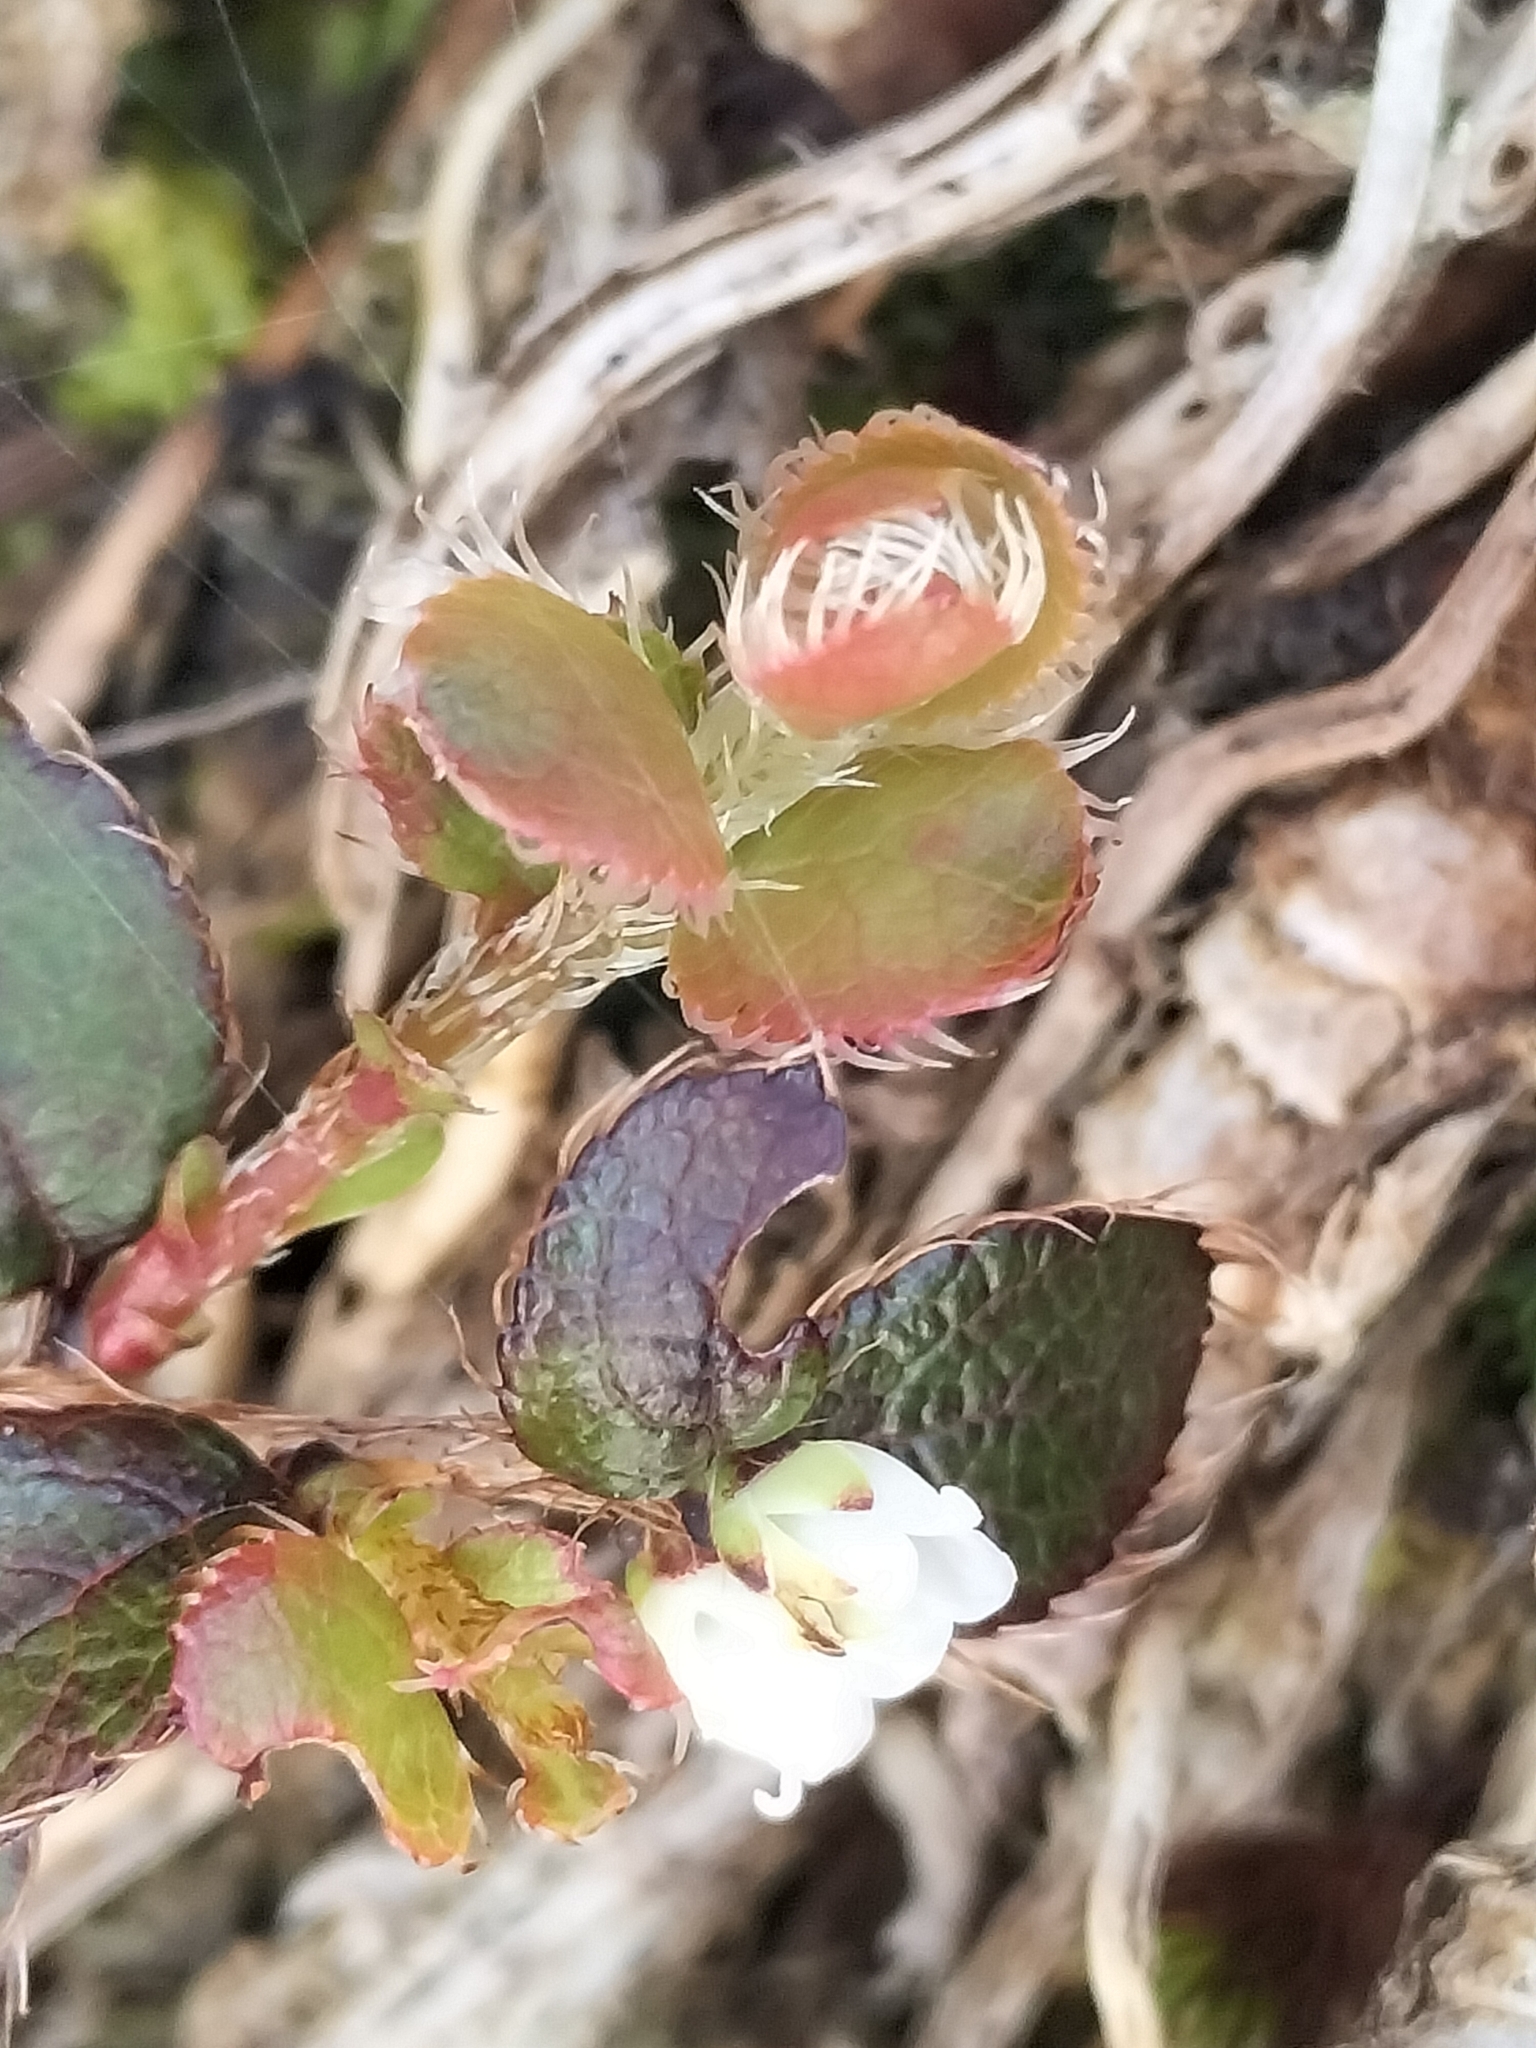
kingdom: Plantae
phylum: Tracheophyta
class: Magnoliopsida
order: Ericales
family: Ericaceae
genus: Gaultheria
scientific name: Gaultheria depressa
